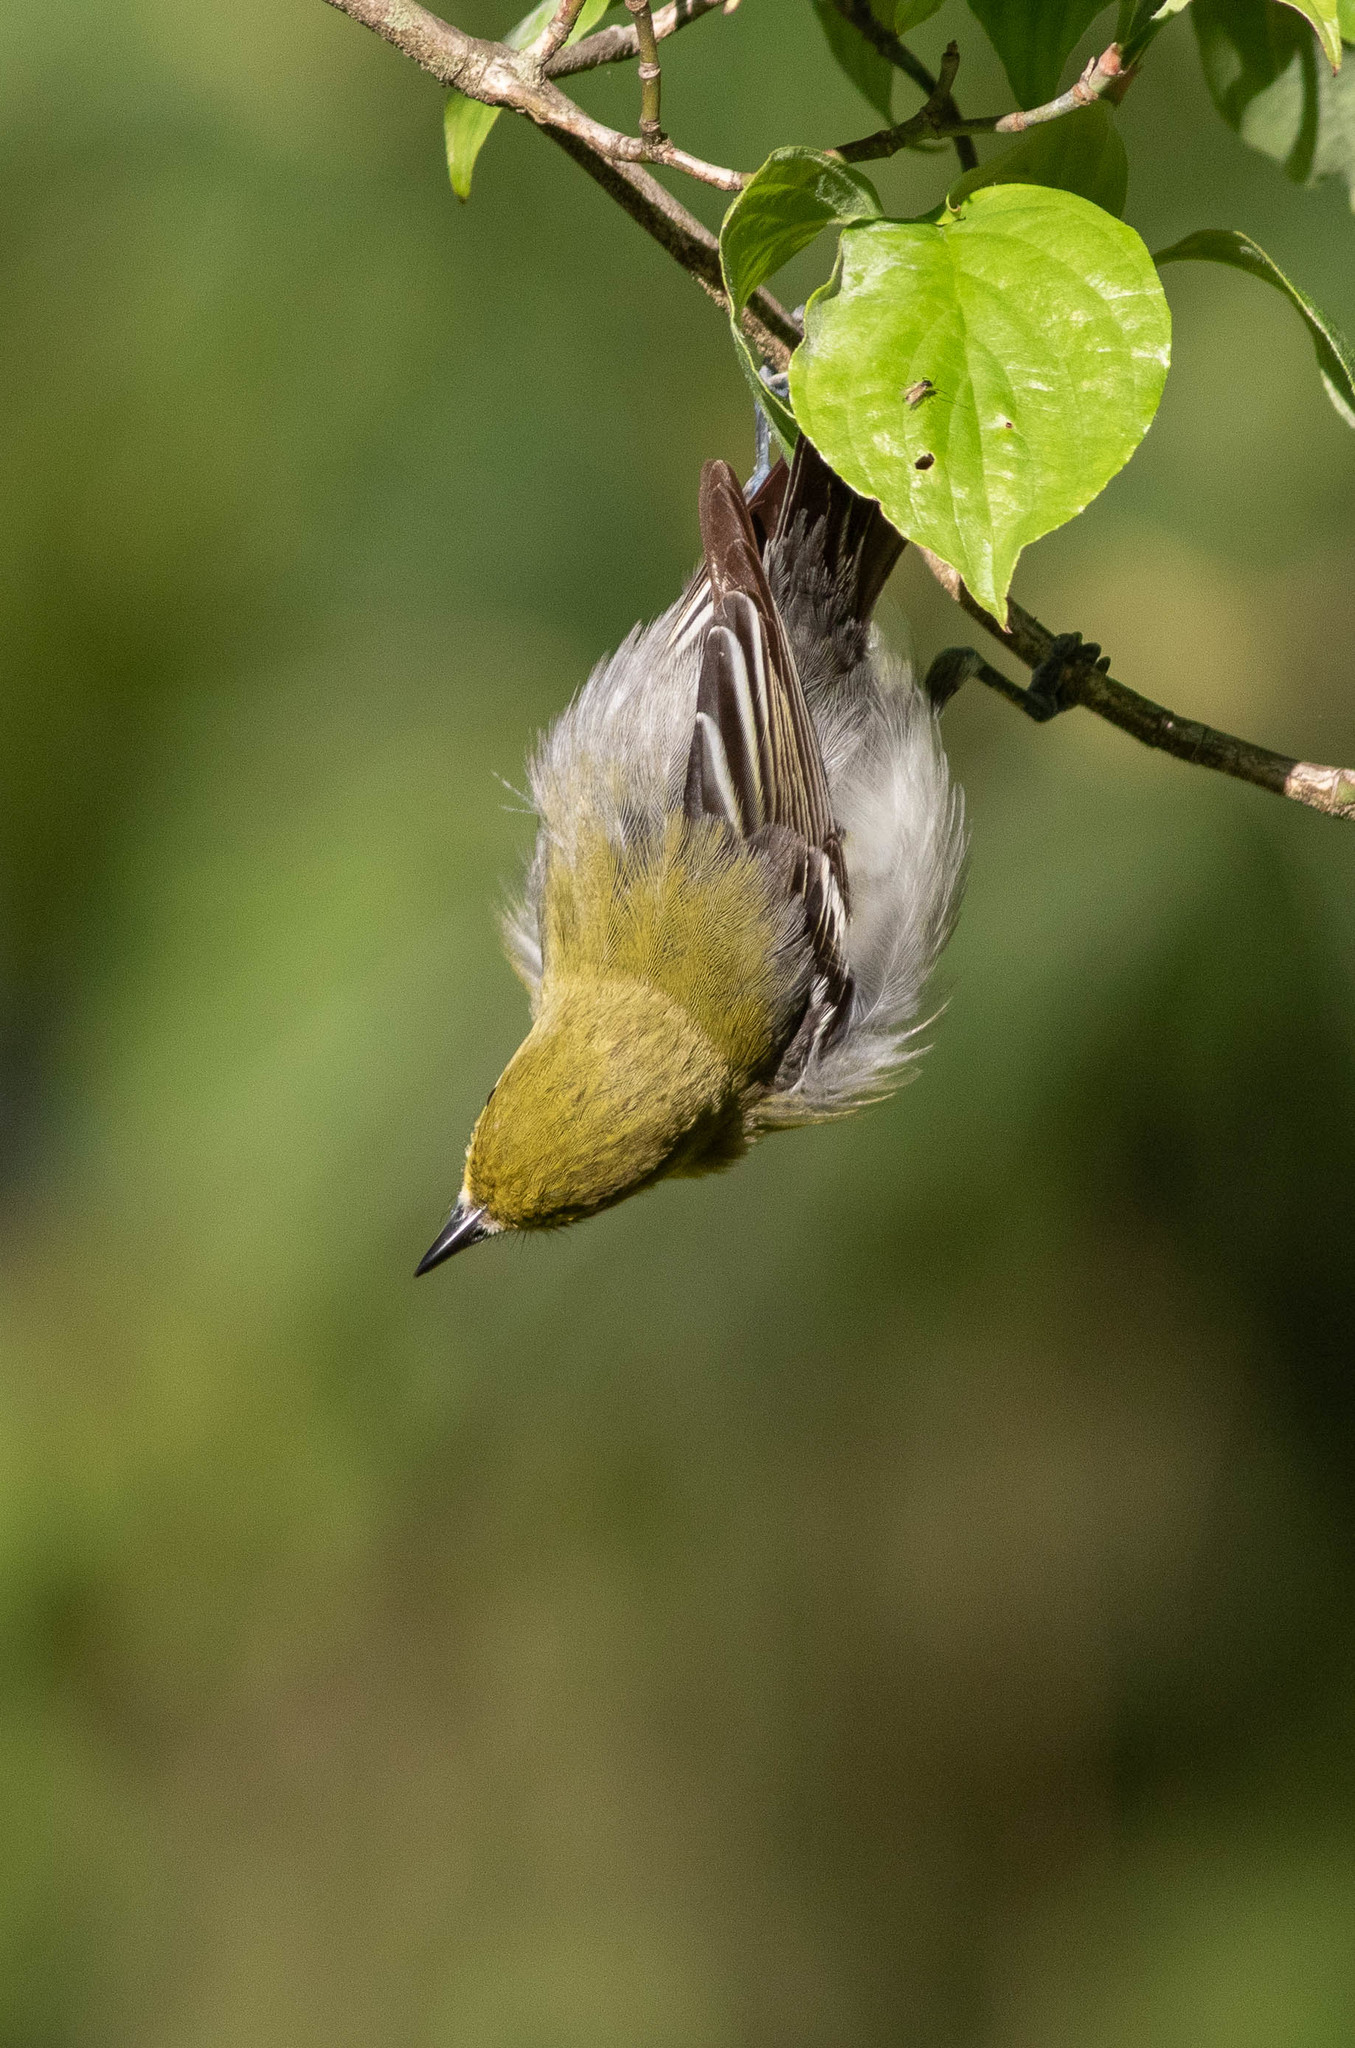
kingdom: Animalia
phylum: Chordata
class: Aves
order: Passeriformes
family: Parulidae
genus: Setophaga
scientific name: Setophaga virens
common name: Black-throated green warbler
